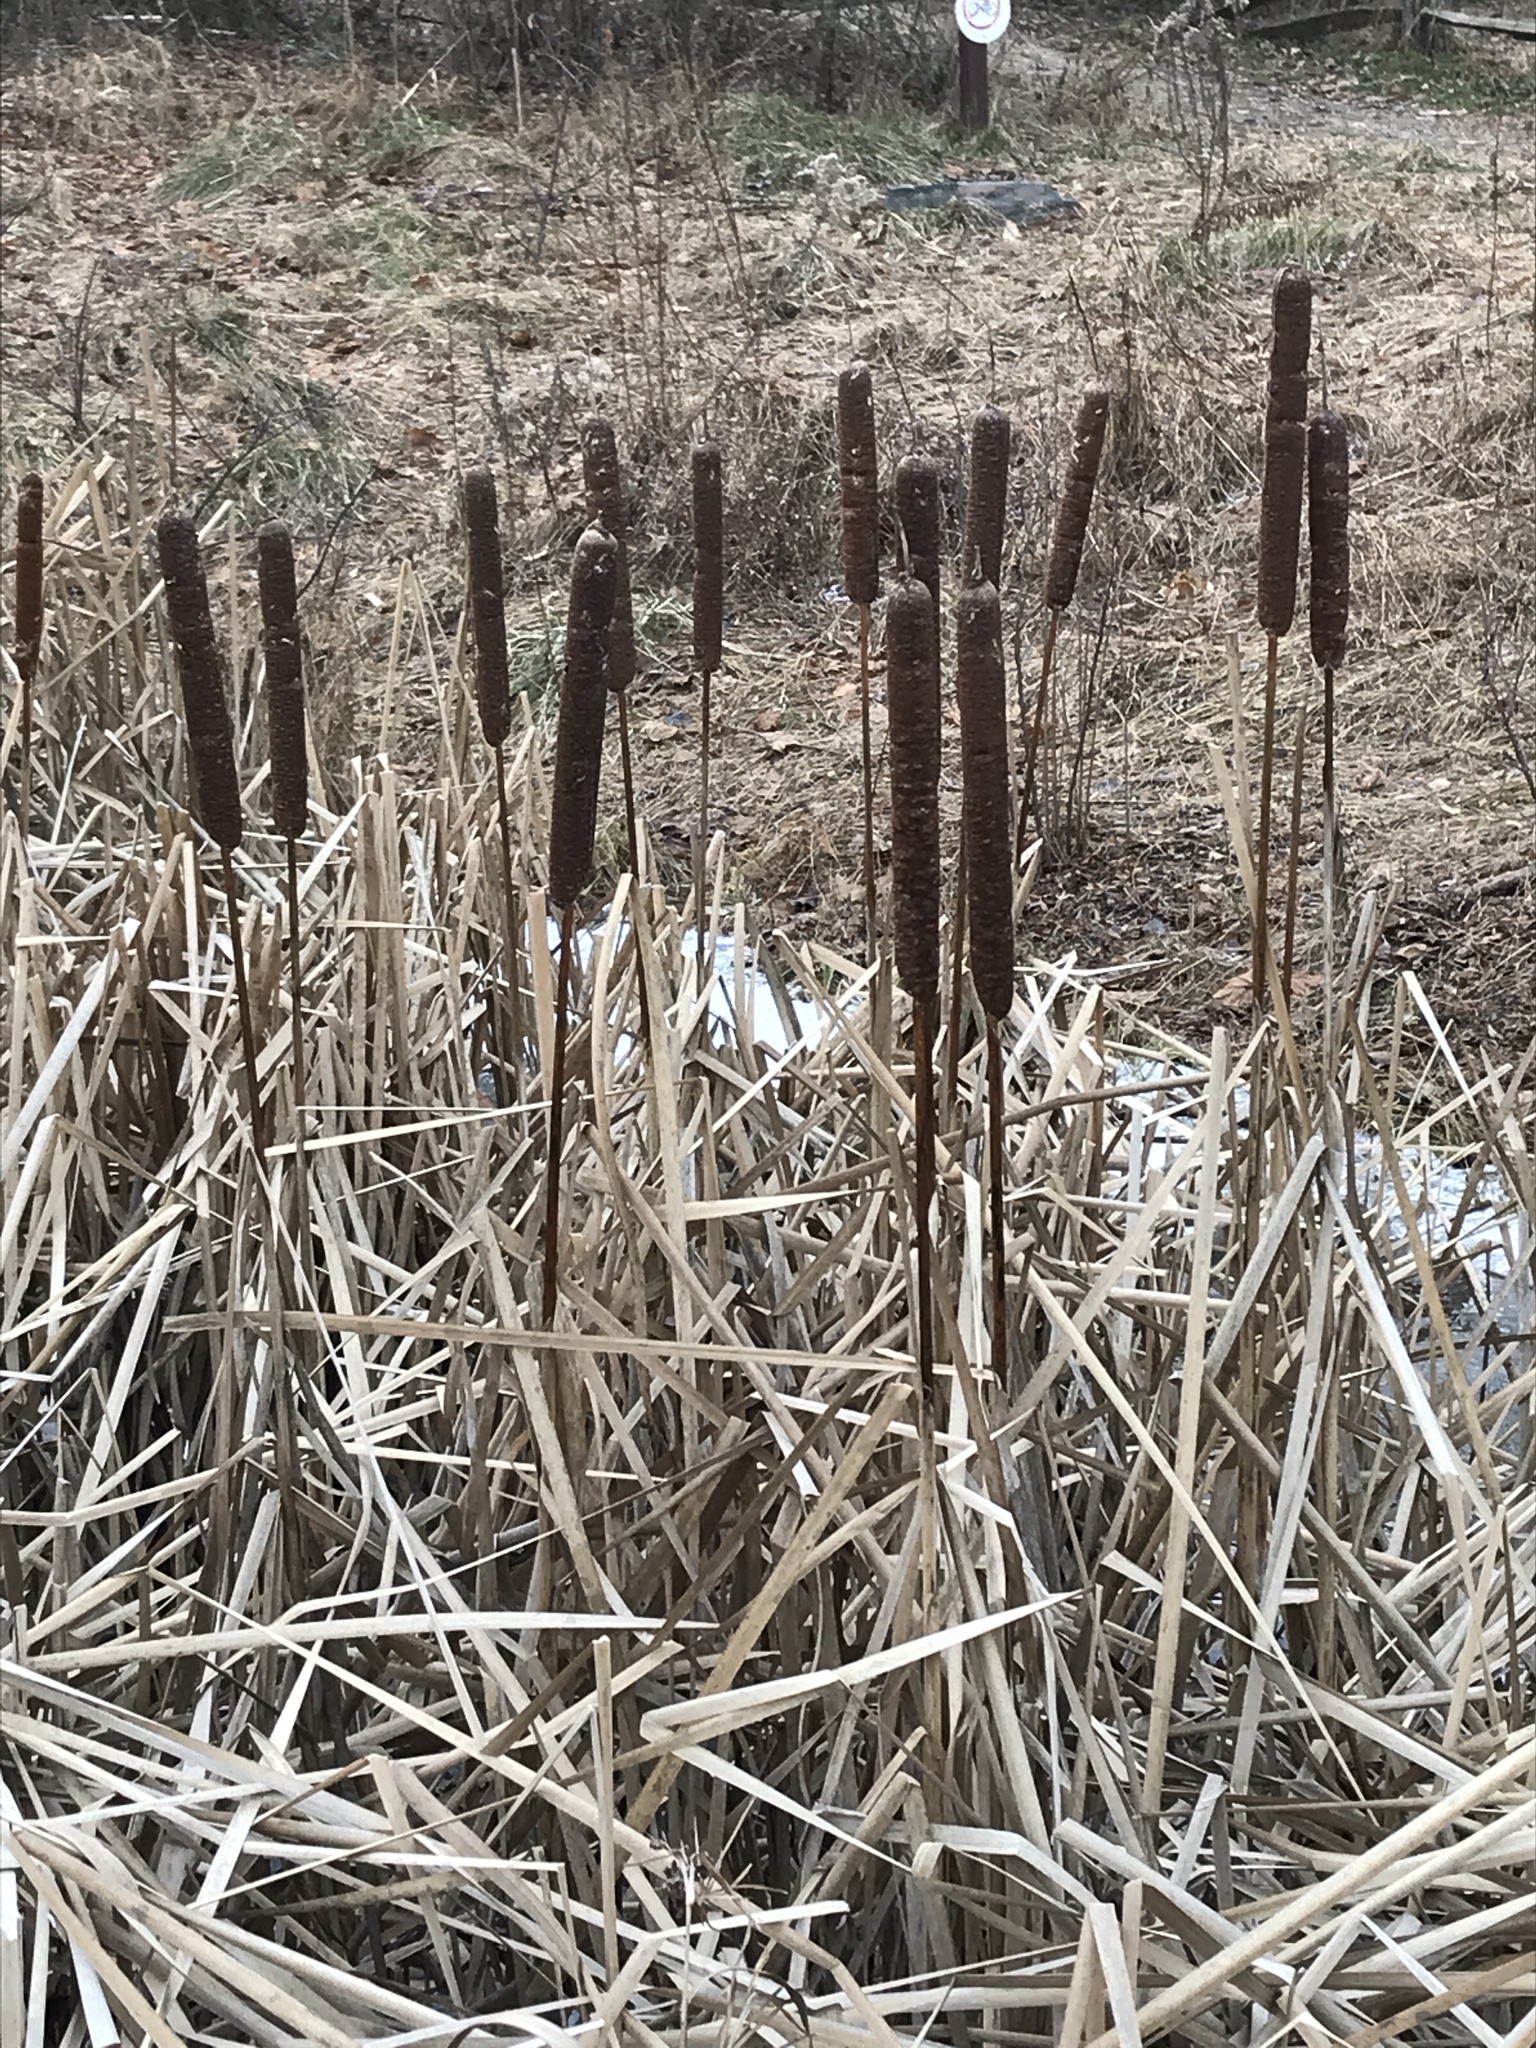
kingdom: Plantae
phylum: Tracheophyta
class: Liliopsida
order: Poales
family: Typhaceae
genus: Typha
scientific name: Typha latifolia
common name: Broadleaf cattail
